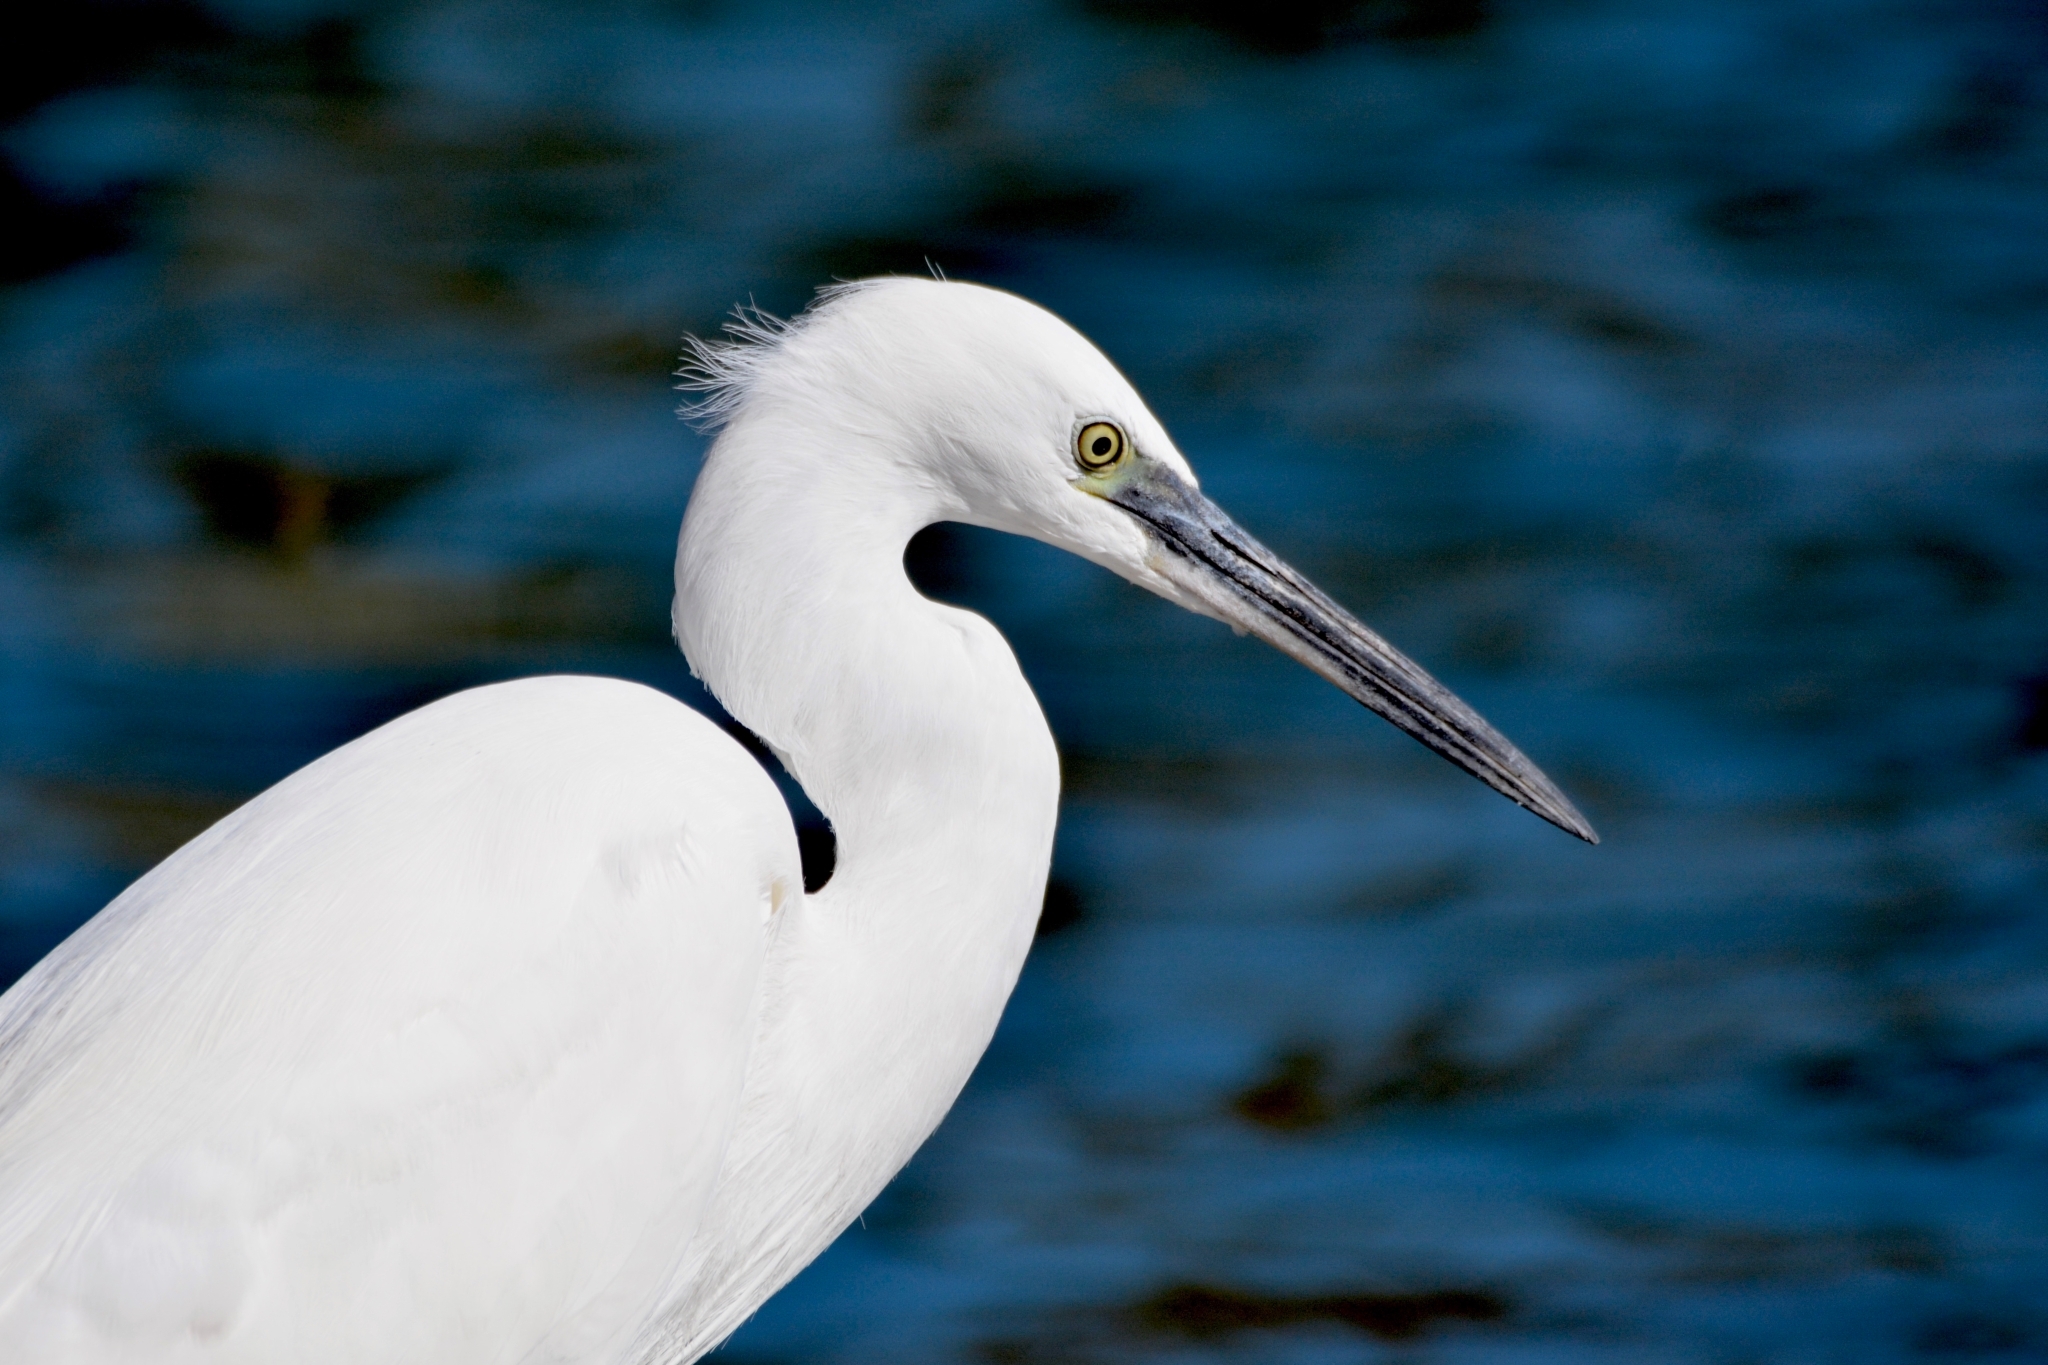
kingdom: Animalia
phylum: Chordata
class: Aves
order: Pelecaniformes
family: Ardeidae
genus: Egretta
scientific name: Egretta garzetta
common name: Little egret
